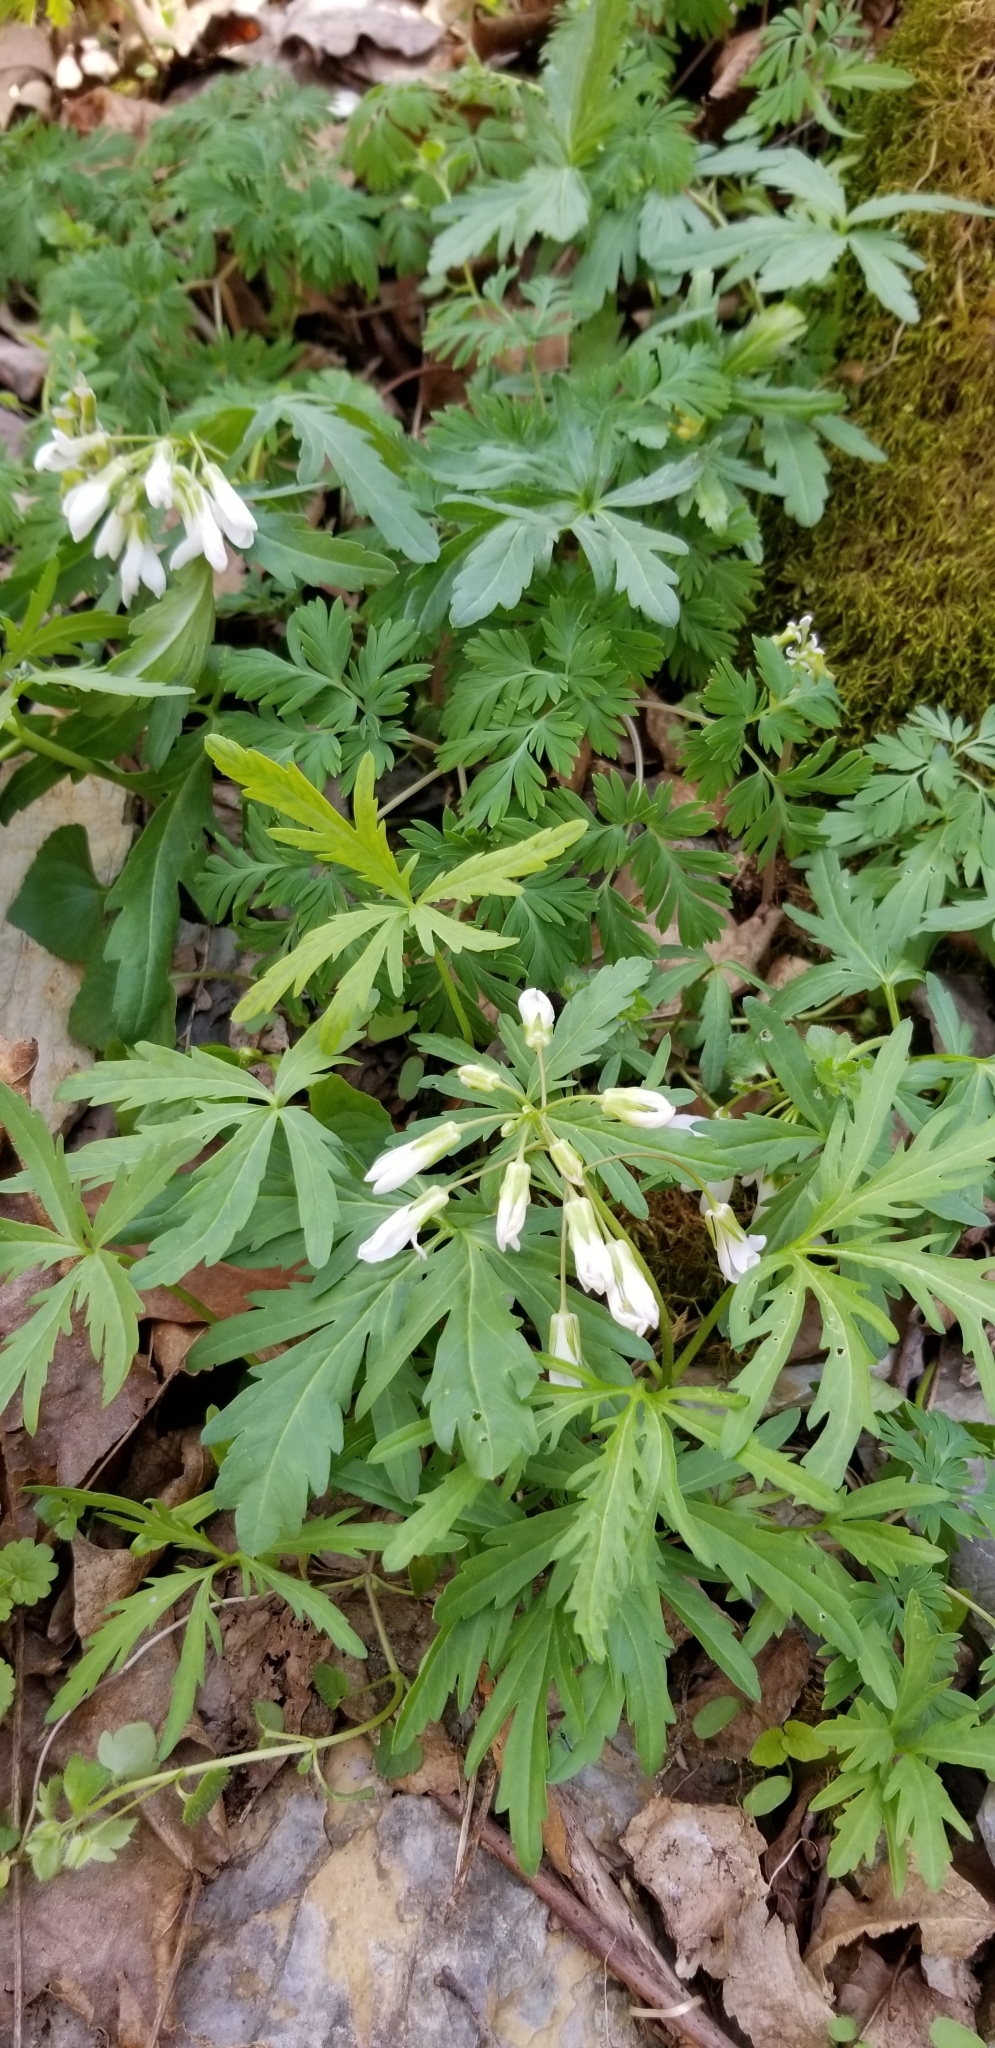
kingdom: Plantae
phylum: Tracheophyta
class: Magnoliopsida
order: Brassicales
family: Brassicaceae
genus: Cardamine
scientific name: Cardamine concatenata
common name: Cut-leaf toothcup
